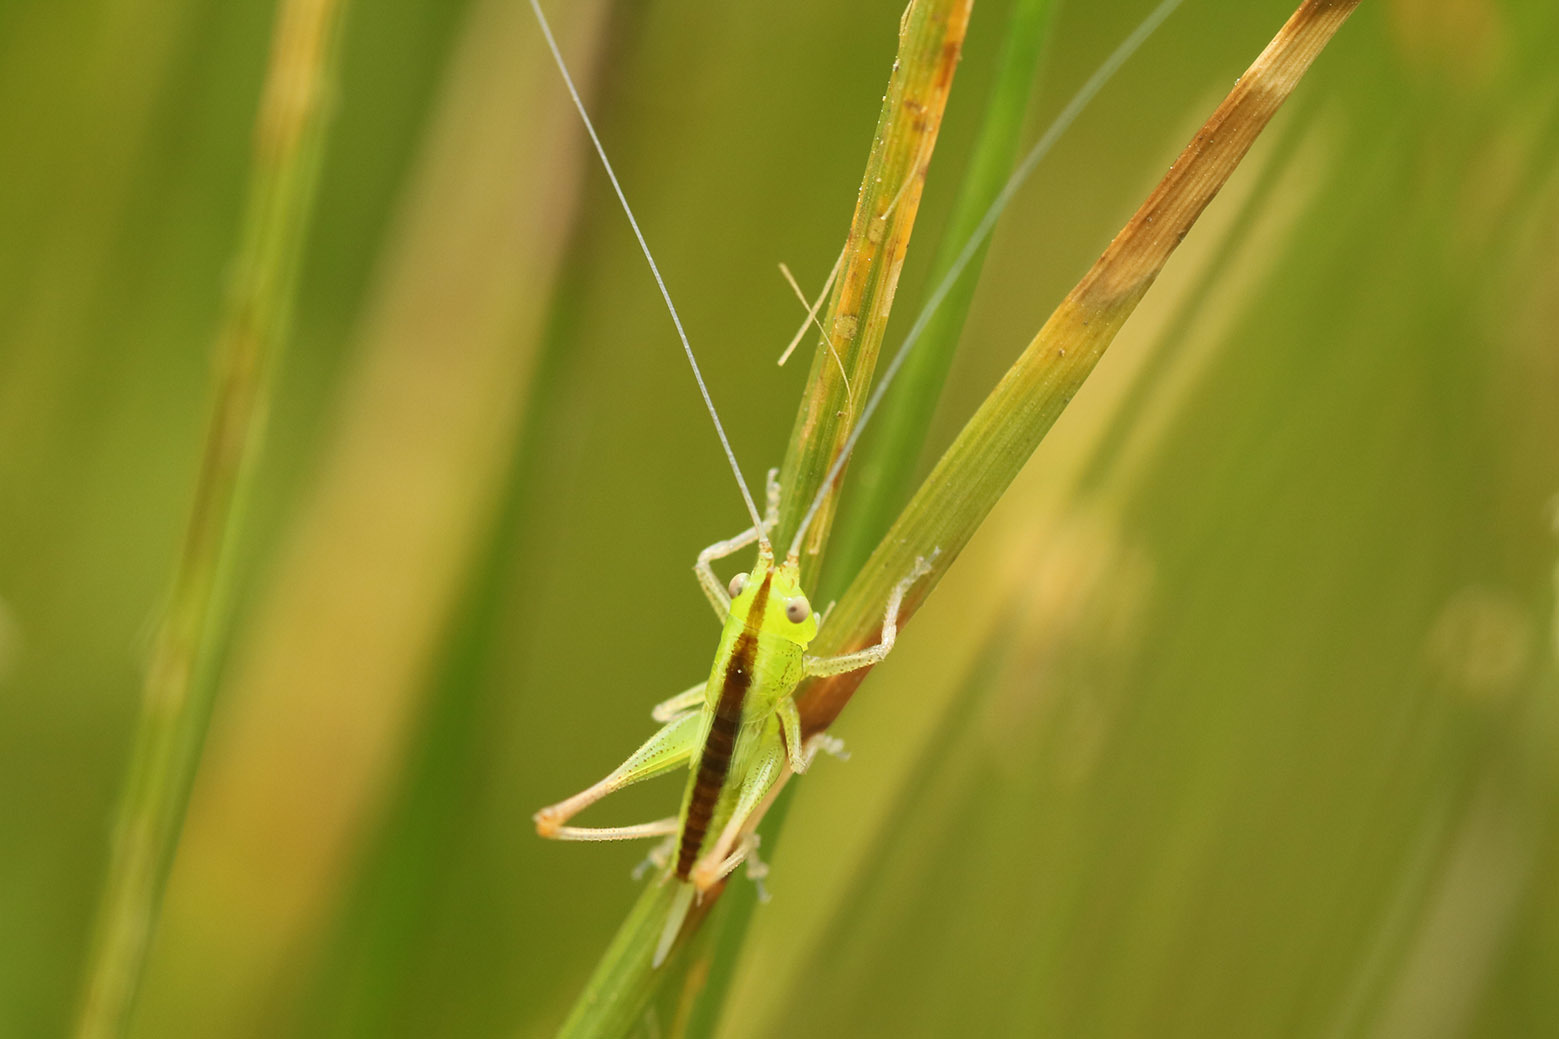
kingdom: Animalia
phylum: Arthropoda
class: Insecta
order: Orthoptera
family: Tettigoniidae
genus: Conocephalus
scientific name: Conocephalus longipes
